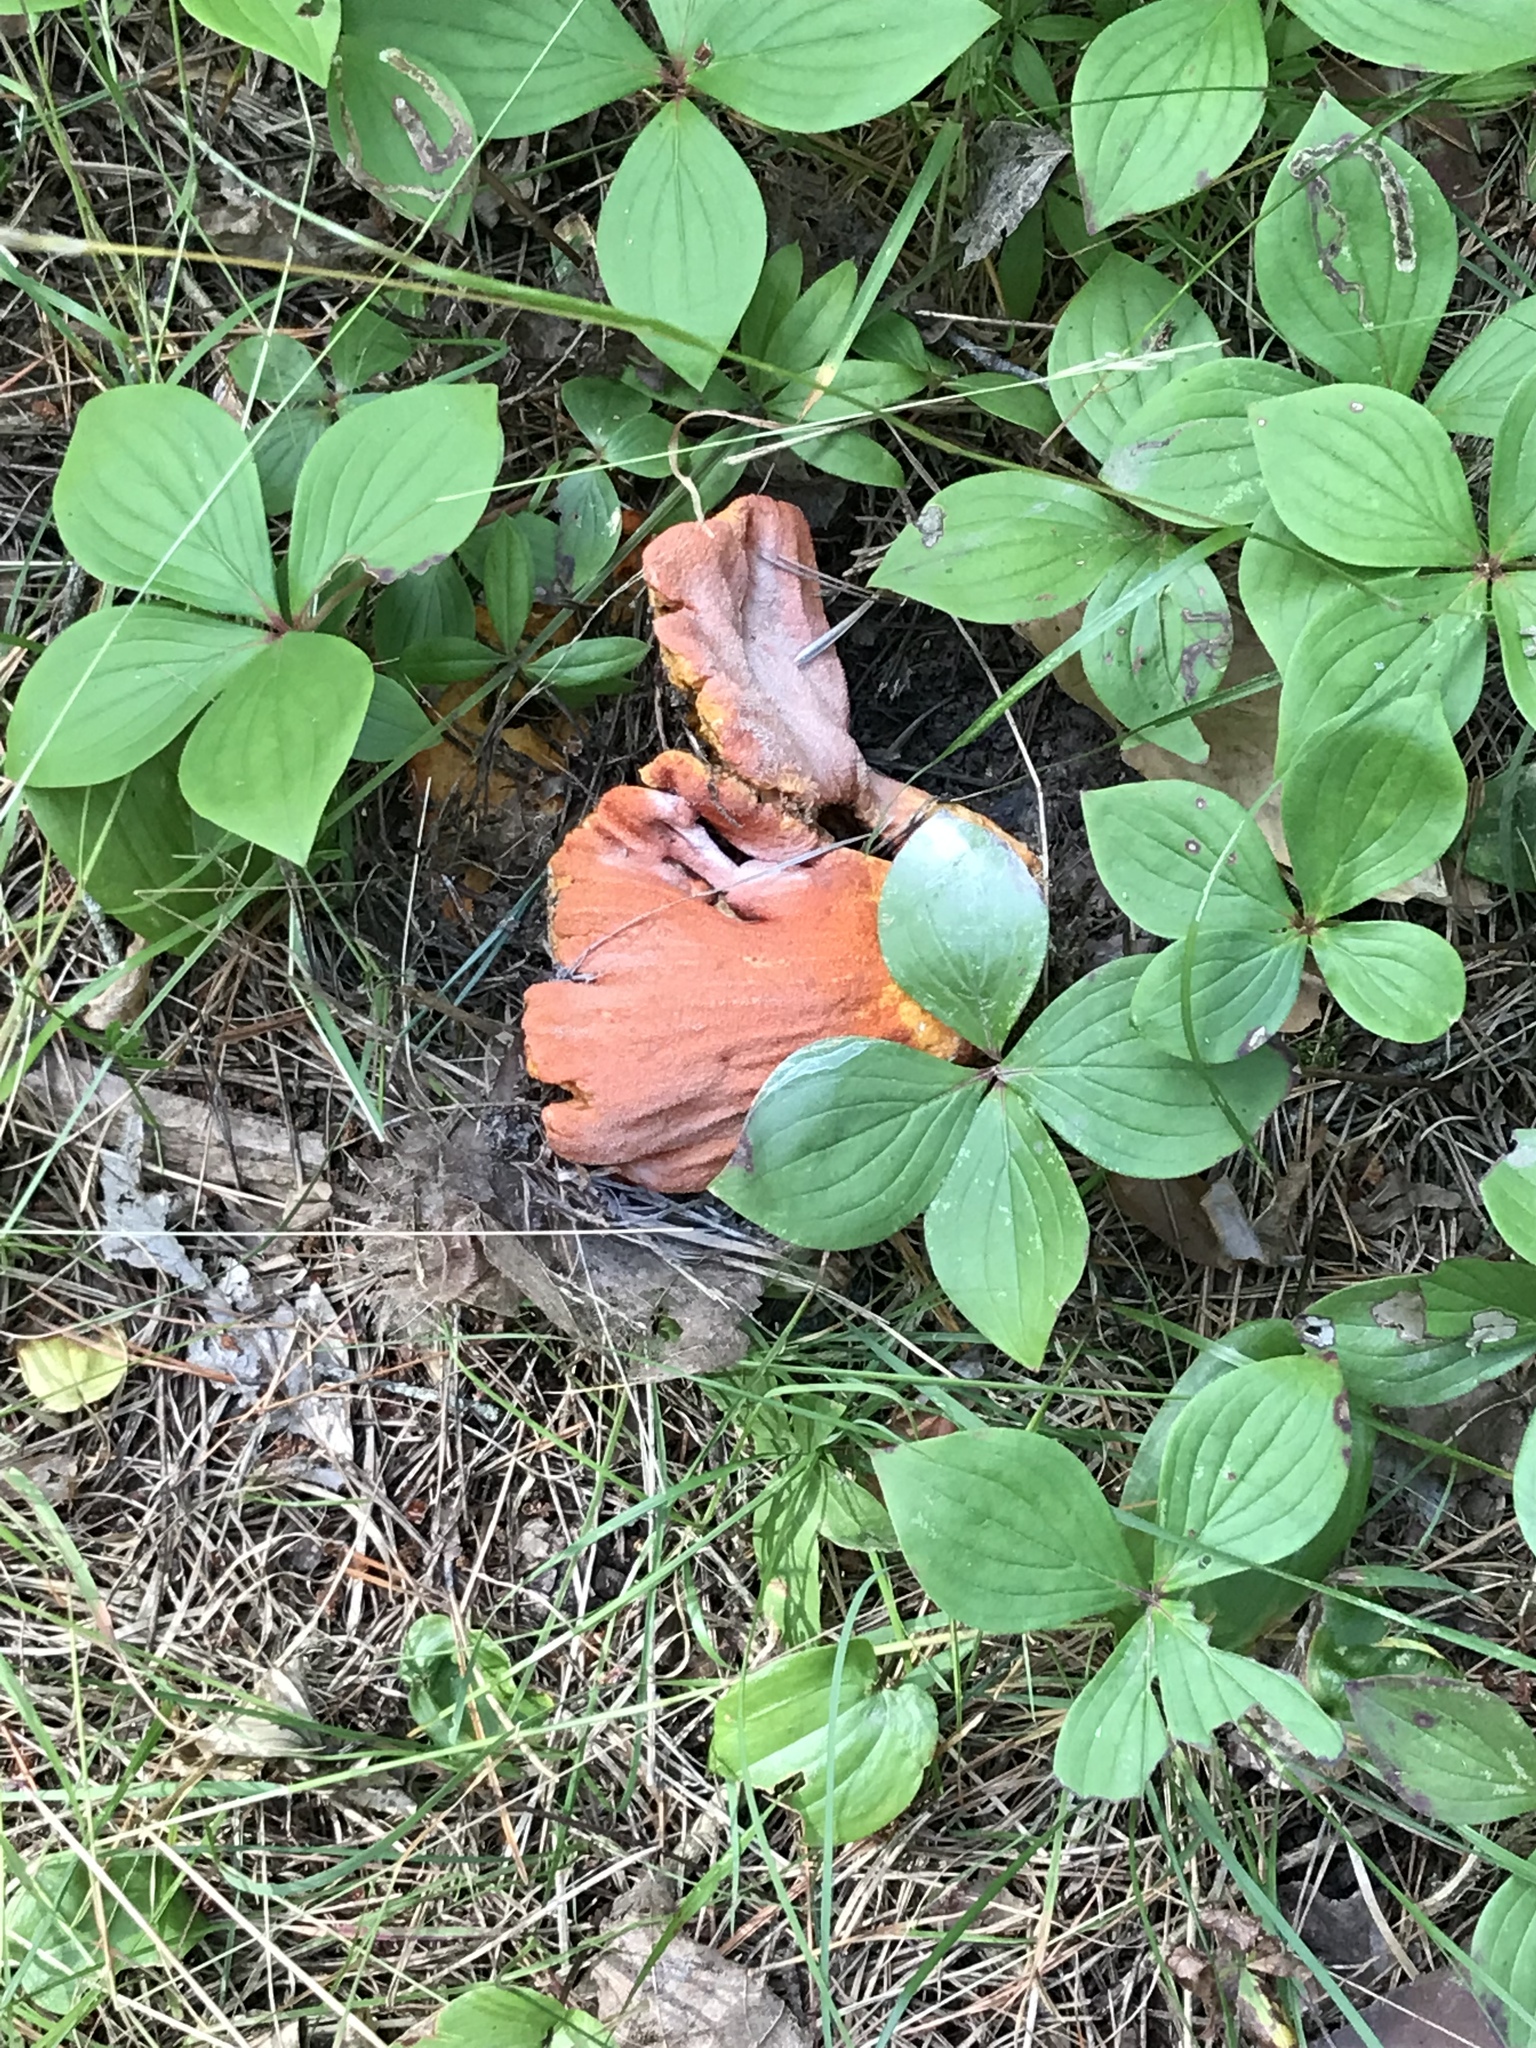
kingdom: Fungi
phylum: Ascomycota
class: Sordariomycetes
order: Hypocreales
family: Hypocreaceae
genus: Hypomyces
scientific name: Hypomyces lactifluorum
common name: Lobster mushroom
